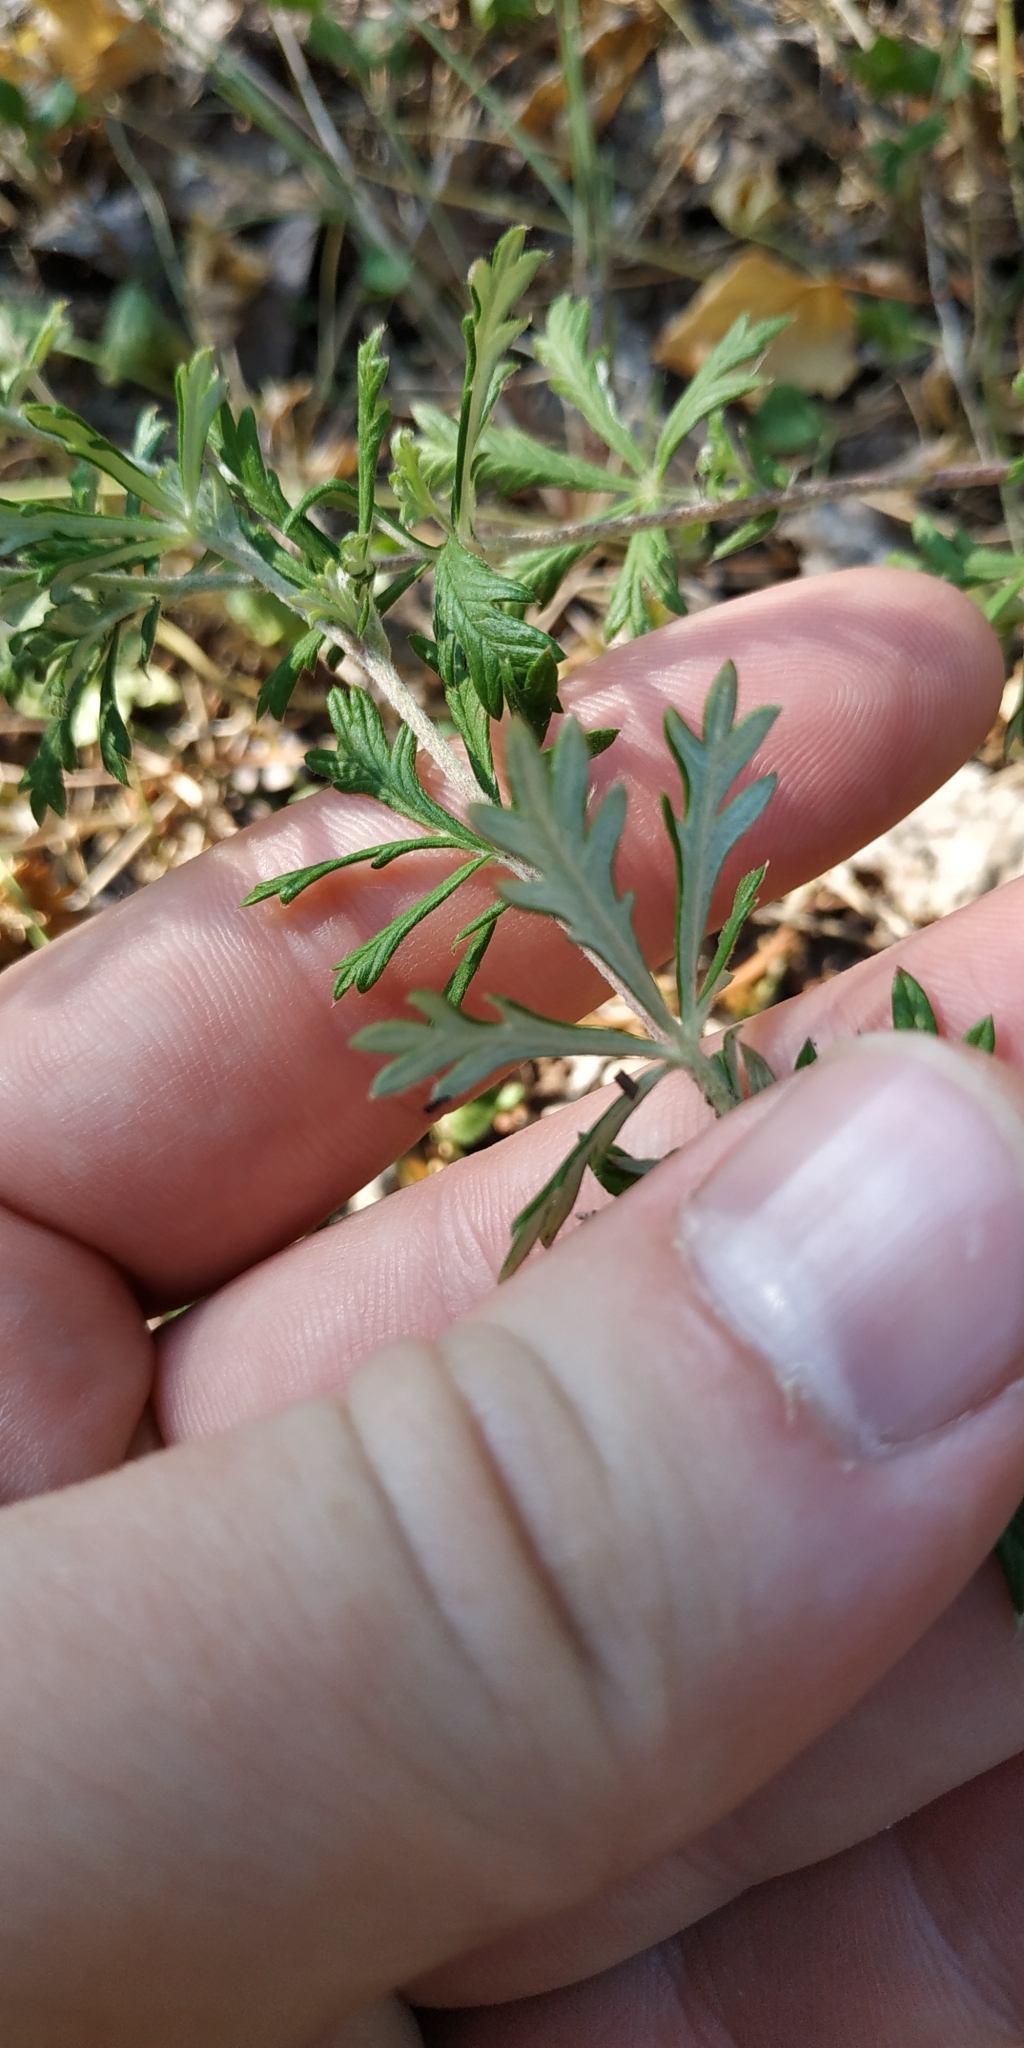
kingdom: Plantae
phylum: Tracheophyta
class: Magnoliopsida
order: Rosales
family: Rosaceae
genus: Potentilla
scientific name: Potentilla argentea
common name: Hoary cinquefoil
